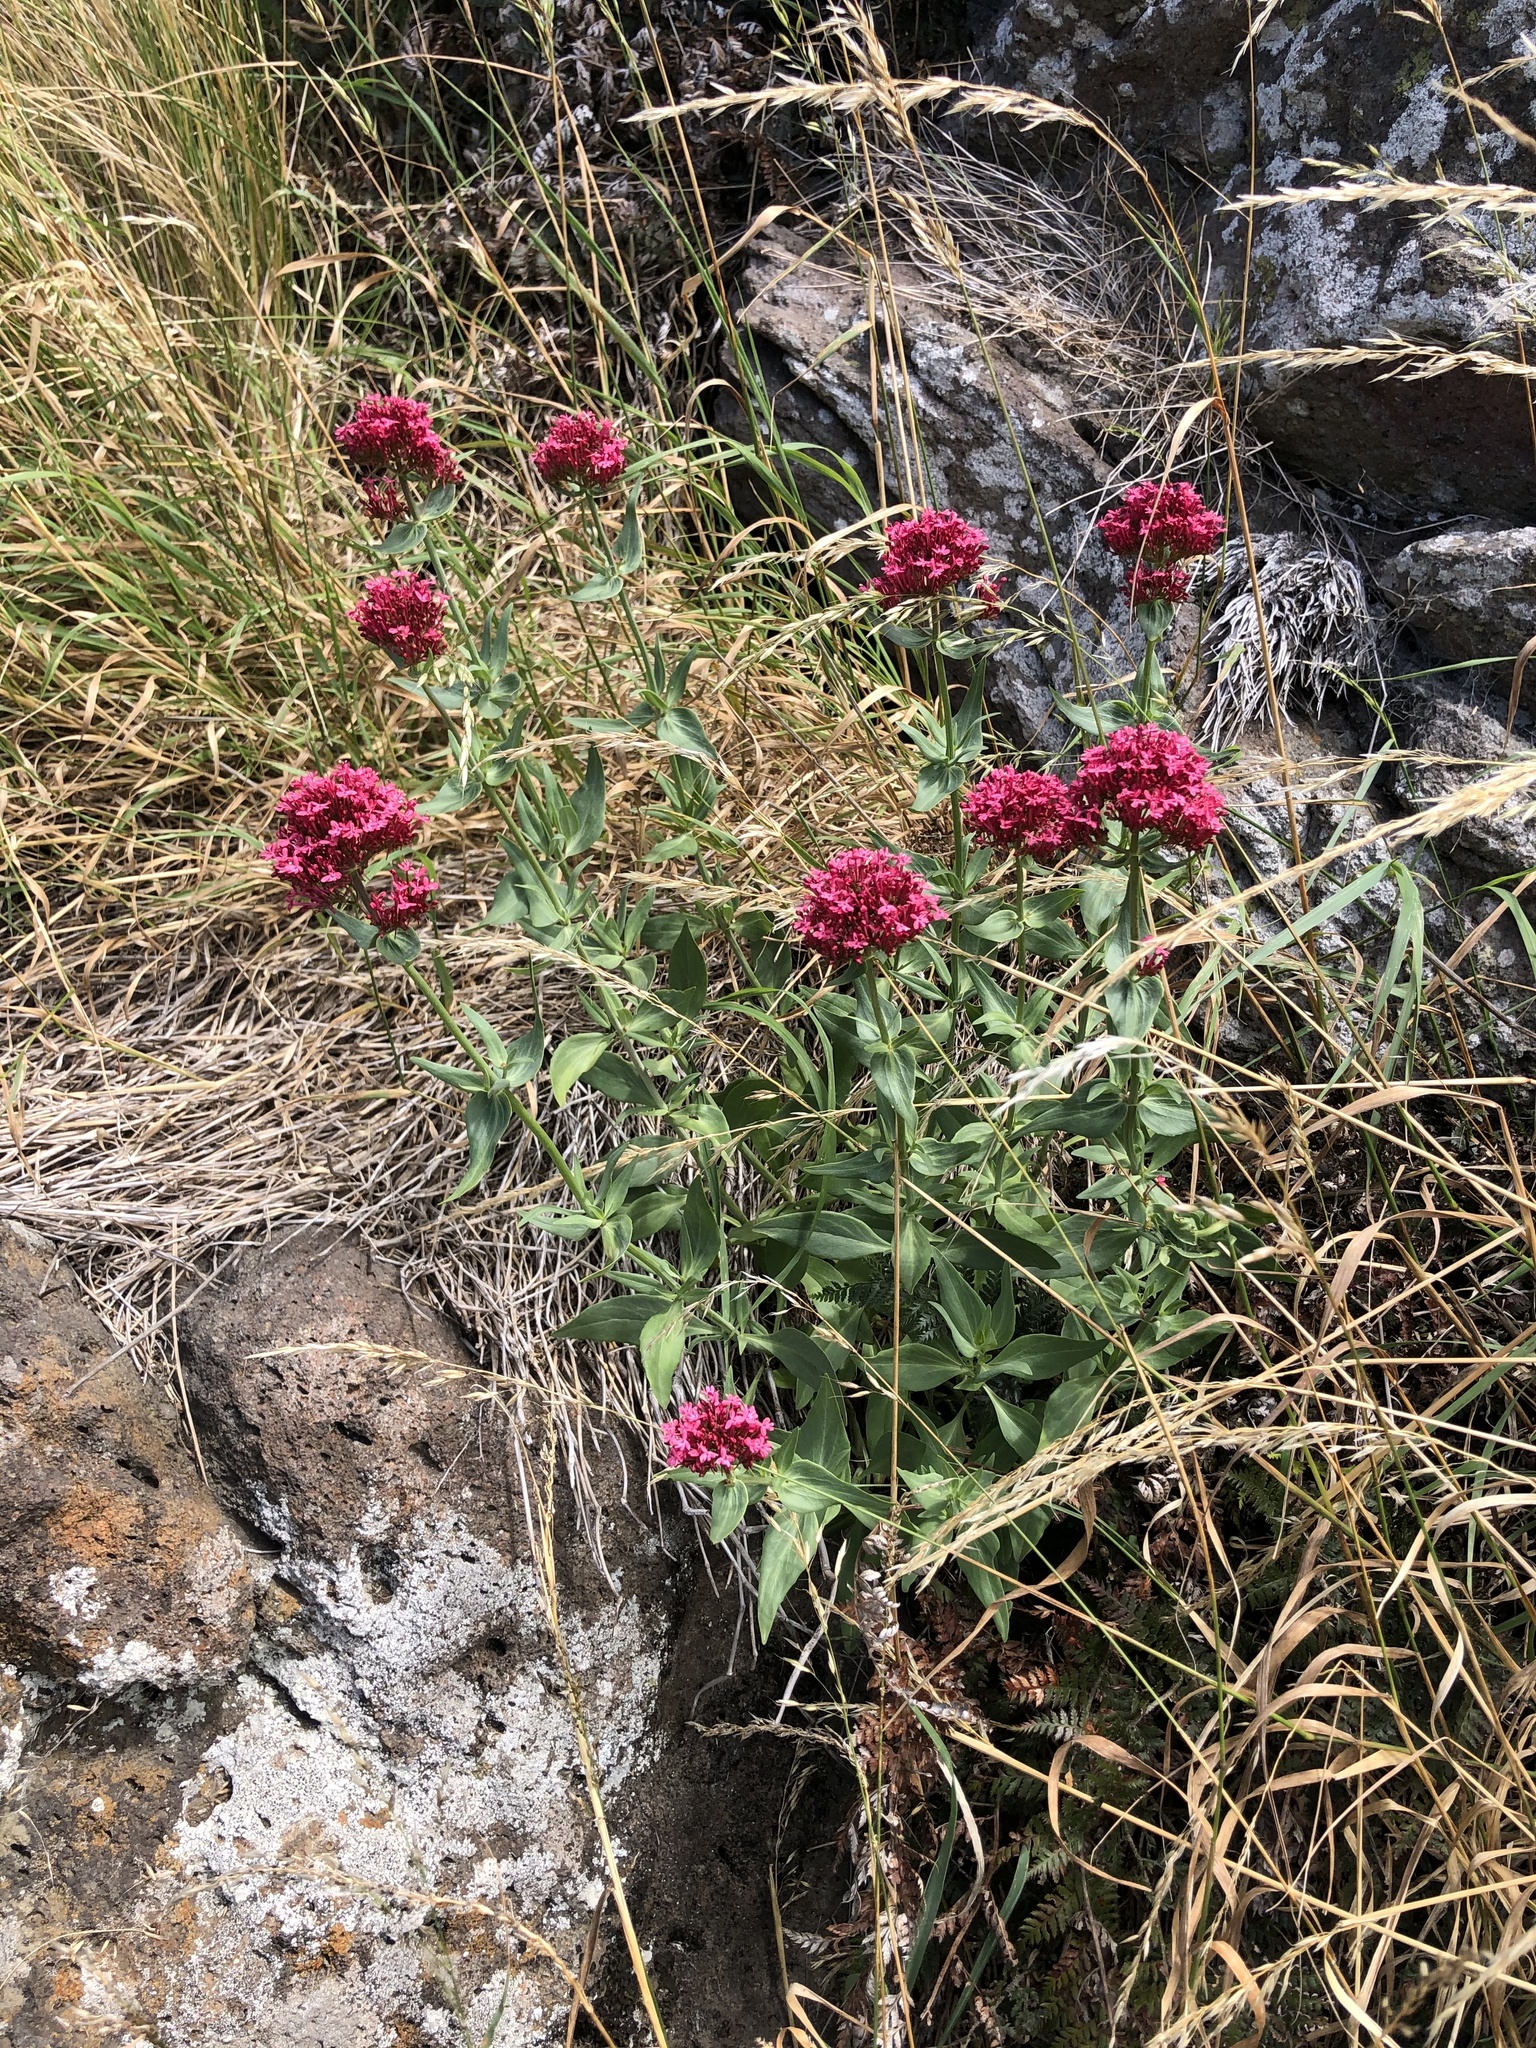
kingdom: Plantae
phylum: Tracheophyta
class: Magnoliopsida
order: Dipsacales
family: Caprifoliaceae
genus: Centranthus
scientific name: Centranthus ruber
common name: Red valerian
